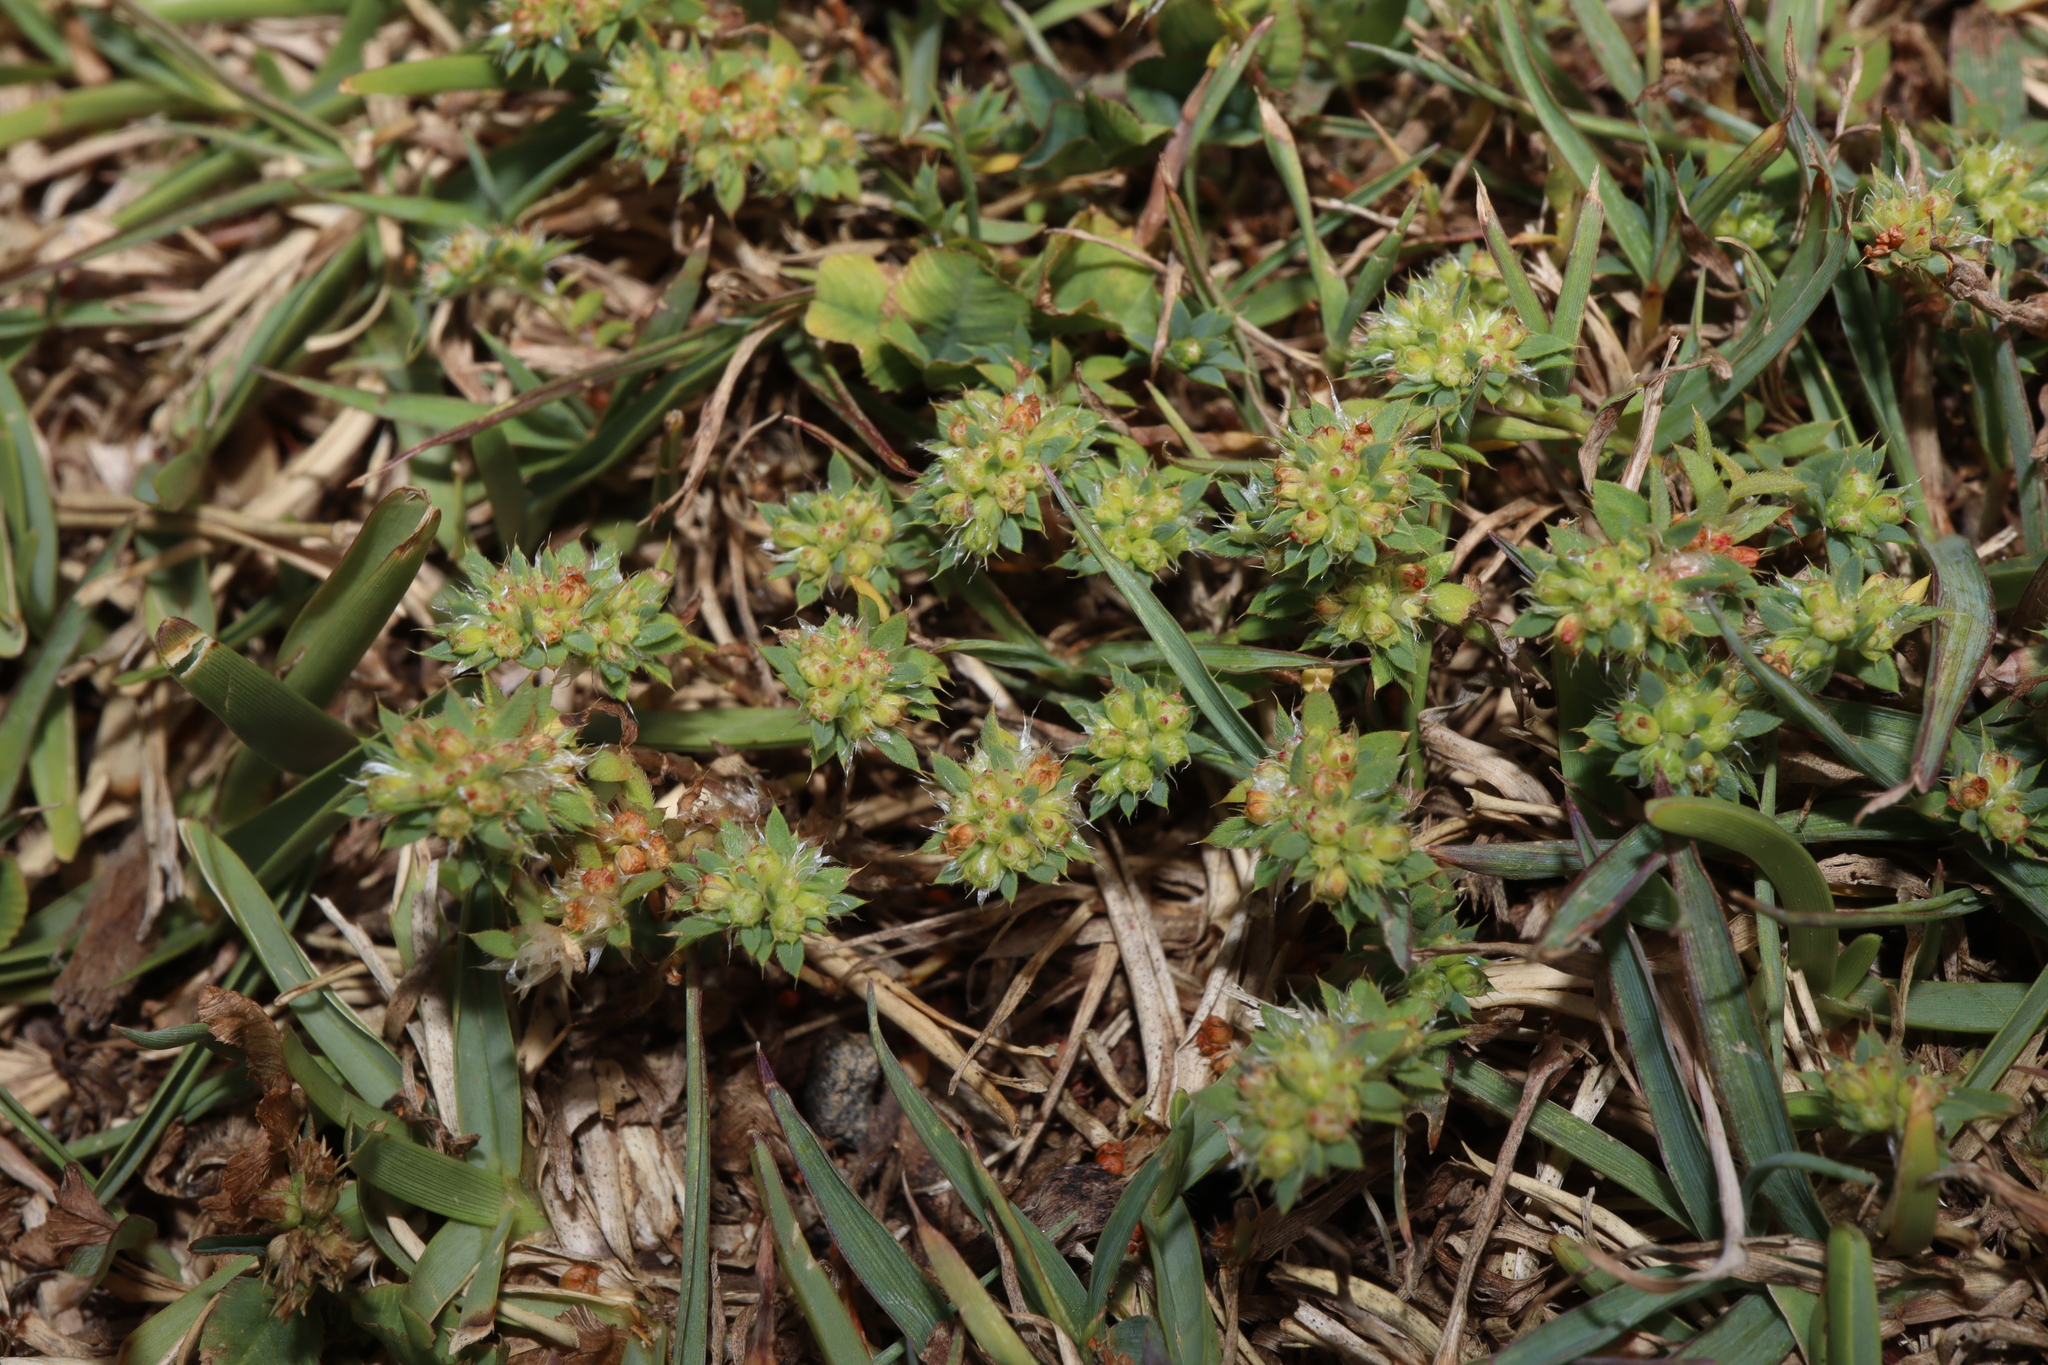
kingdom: Plantae
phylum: Tracheophyta
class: Magnoliopsida
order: Caryophyllales
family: Caryophyllaceae
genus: Paronychia
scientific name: Paronychia brasiliana
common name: Brazilian whitlow
